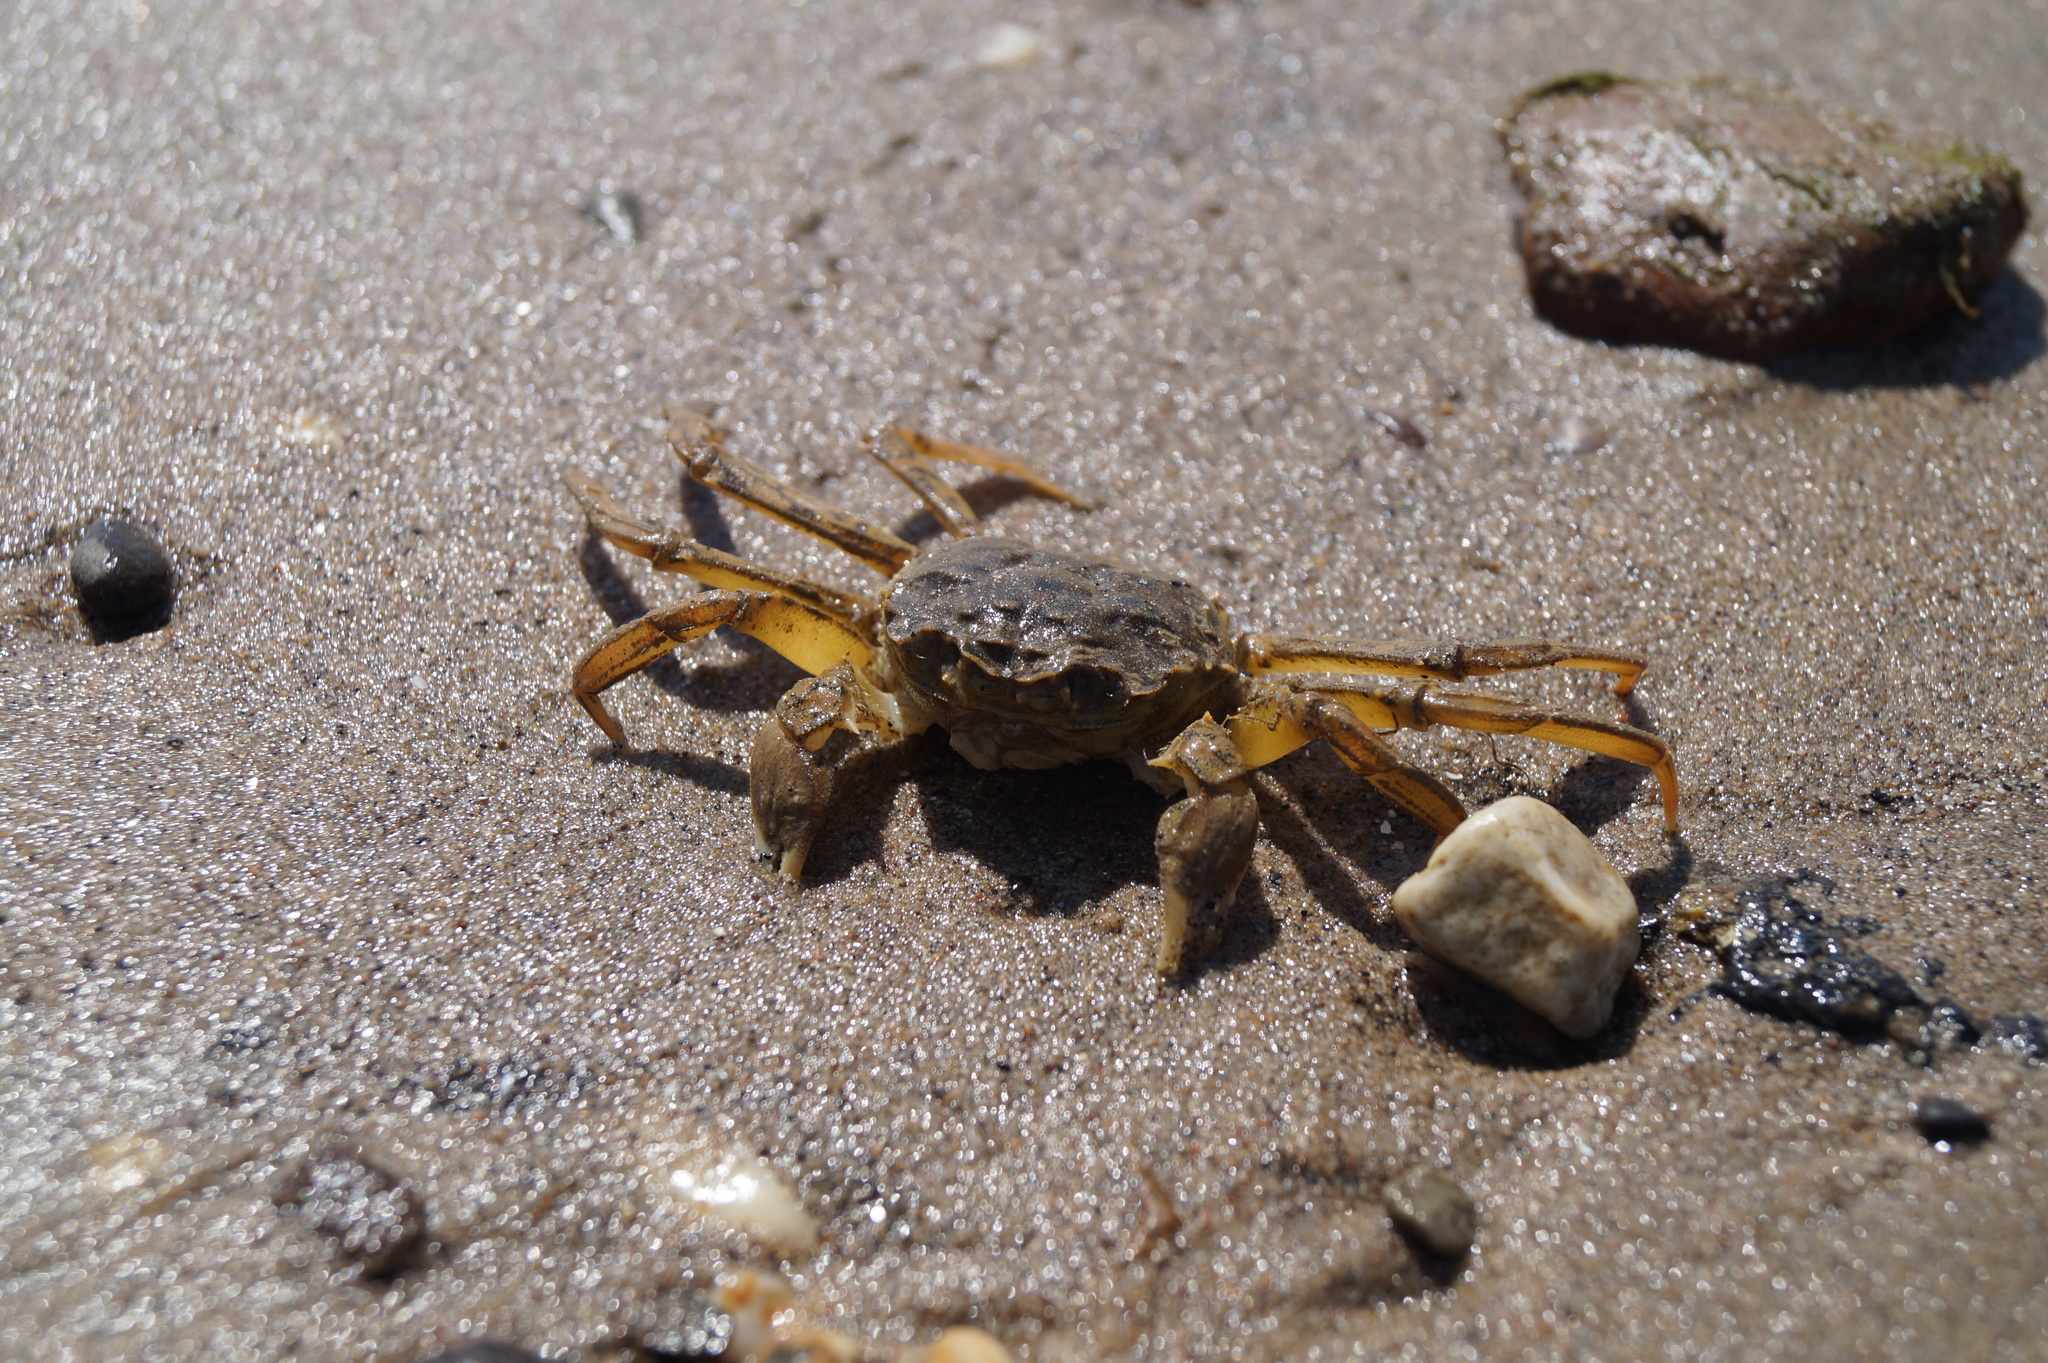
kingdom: Animalia
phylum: Arthropoda
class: Malacostraca
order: Decapoda
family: Varunidae
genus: Eriocheir
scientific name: Eriocheir sinensis
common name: Chinese mitten crab
